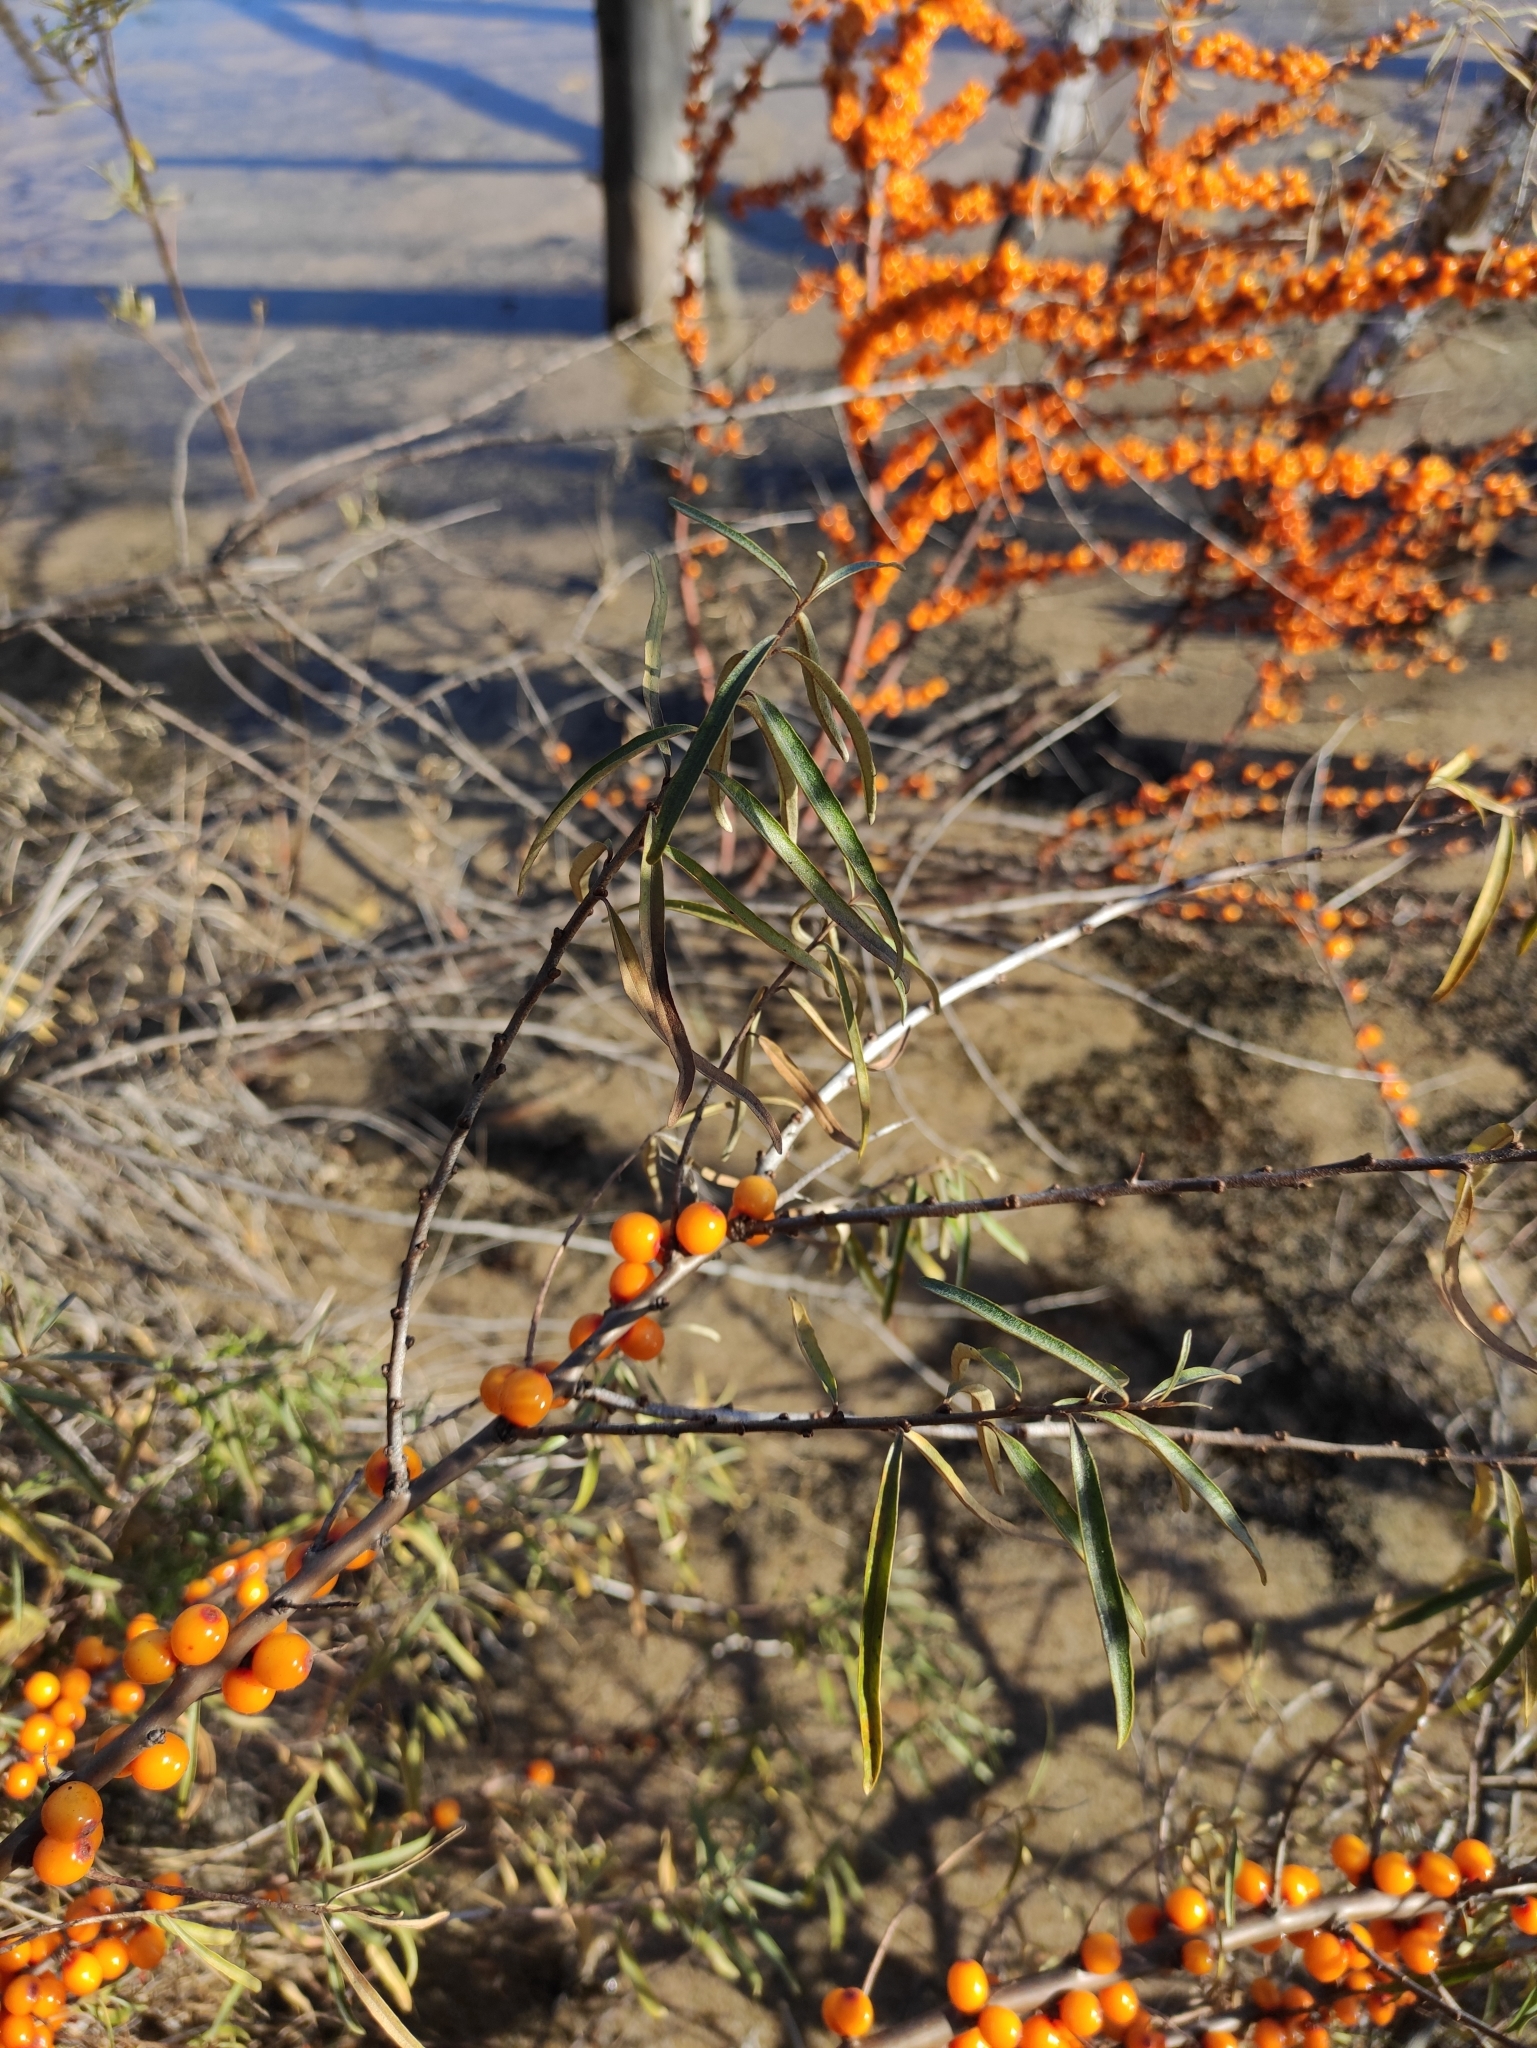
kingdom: Plantae
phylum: Tracheophyta
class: Magnoliopsida
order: Rosales
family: Elaeagnaceae
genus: Hippophae
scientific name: Hippophae rhamnoides
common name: Sea-buckthorn
